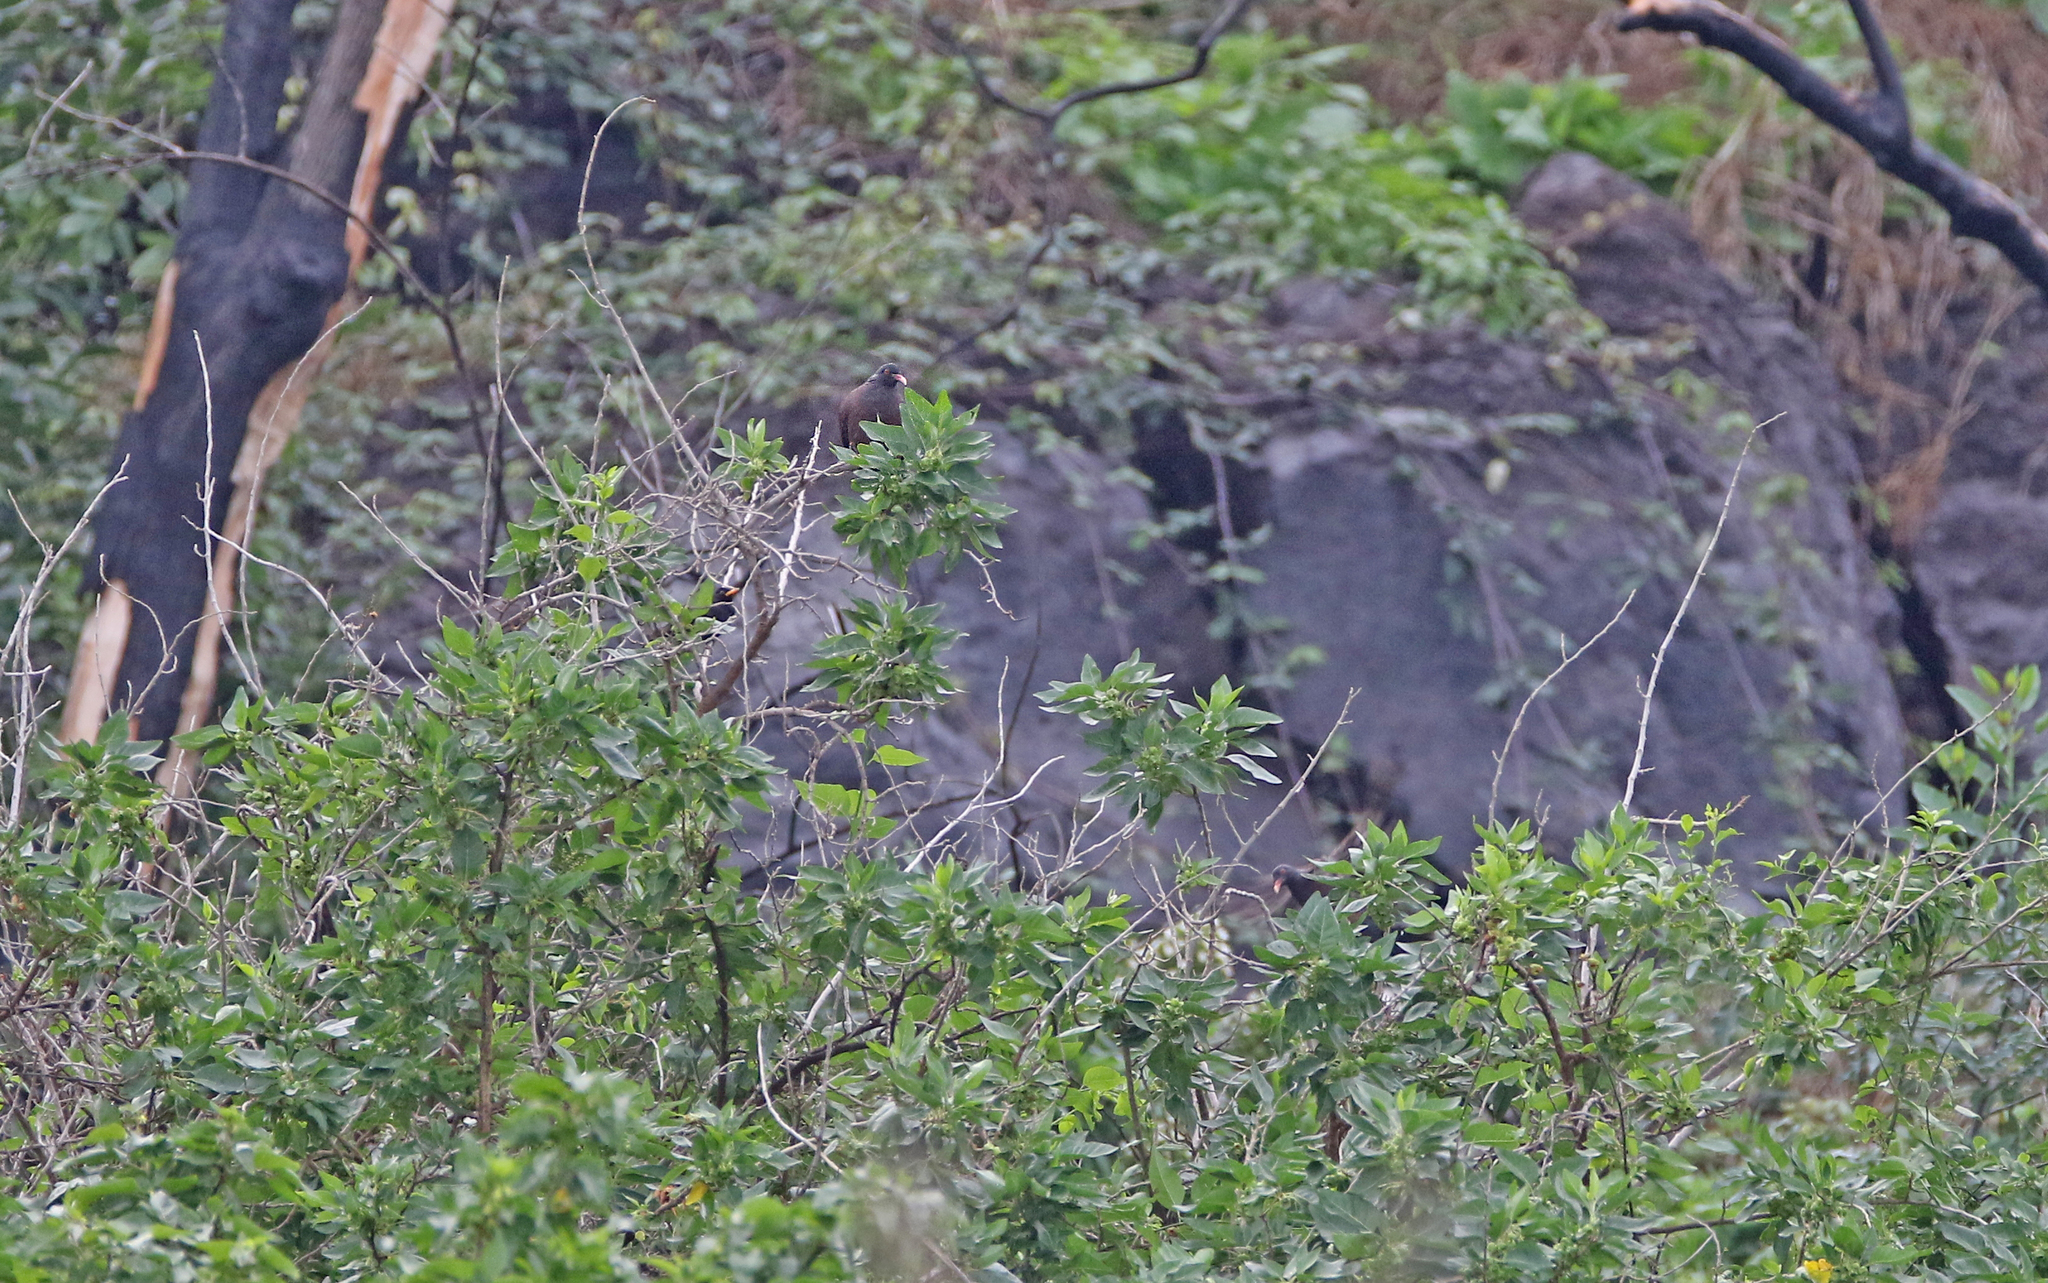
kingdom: Animalia
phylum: Chordata
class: Aves
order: Columbiformes
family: Columbidae
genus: Columba
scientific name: Columba junoniae
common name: Laurel pigeon
